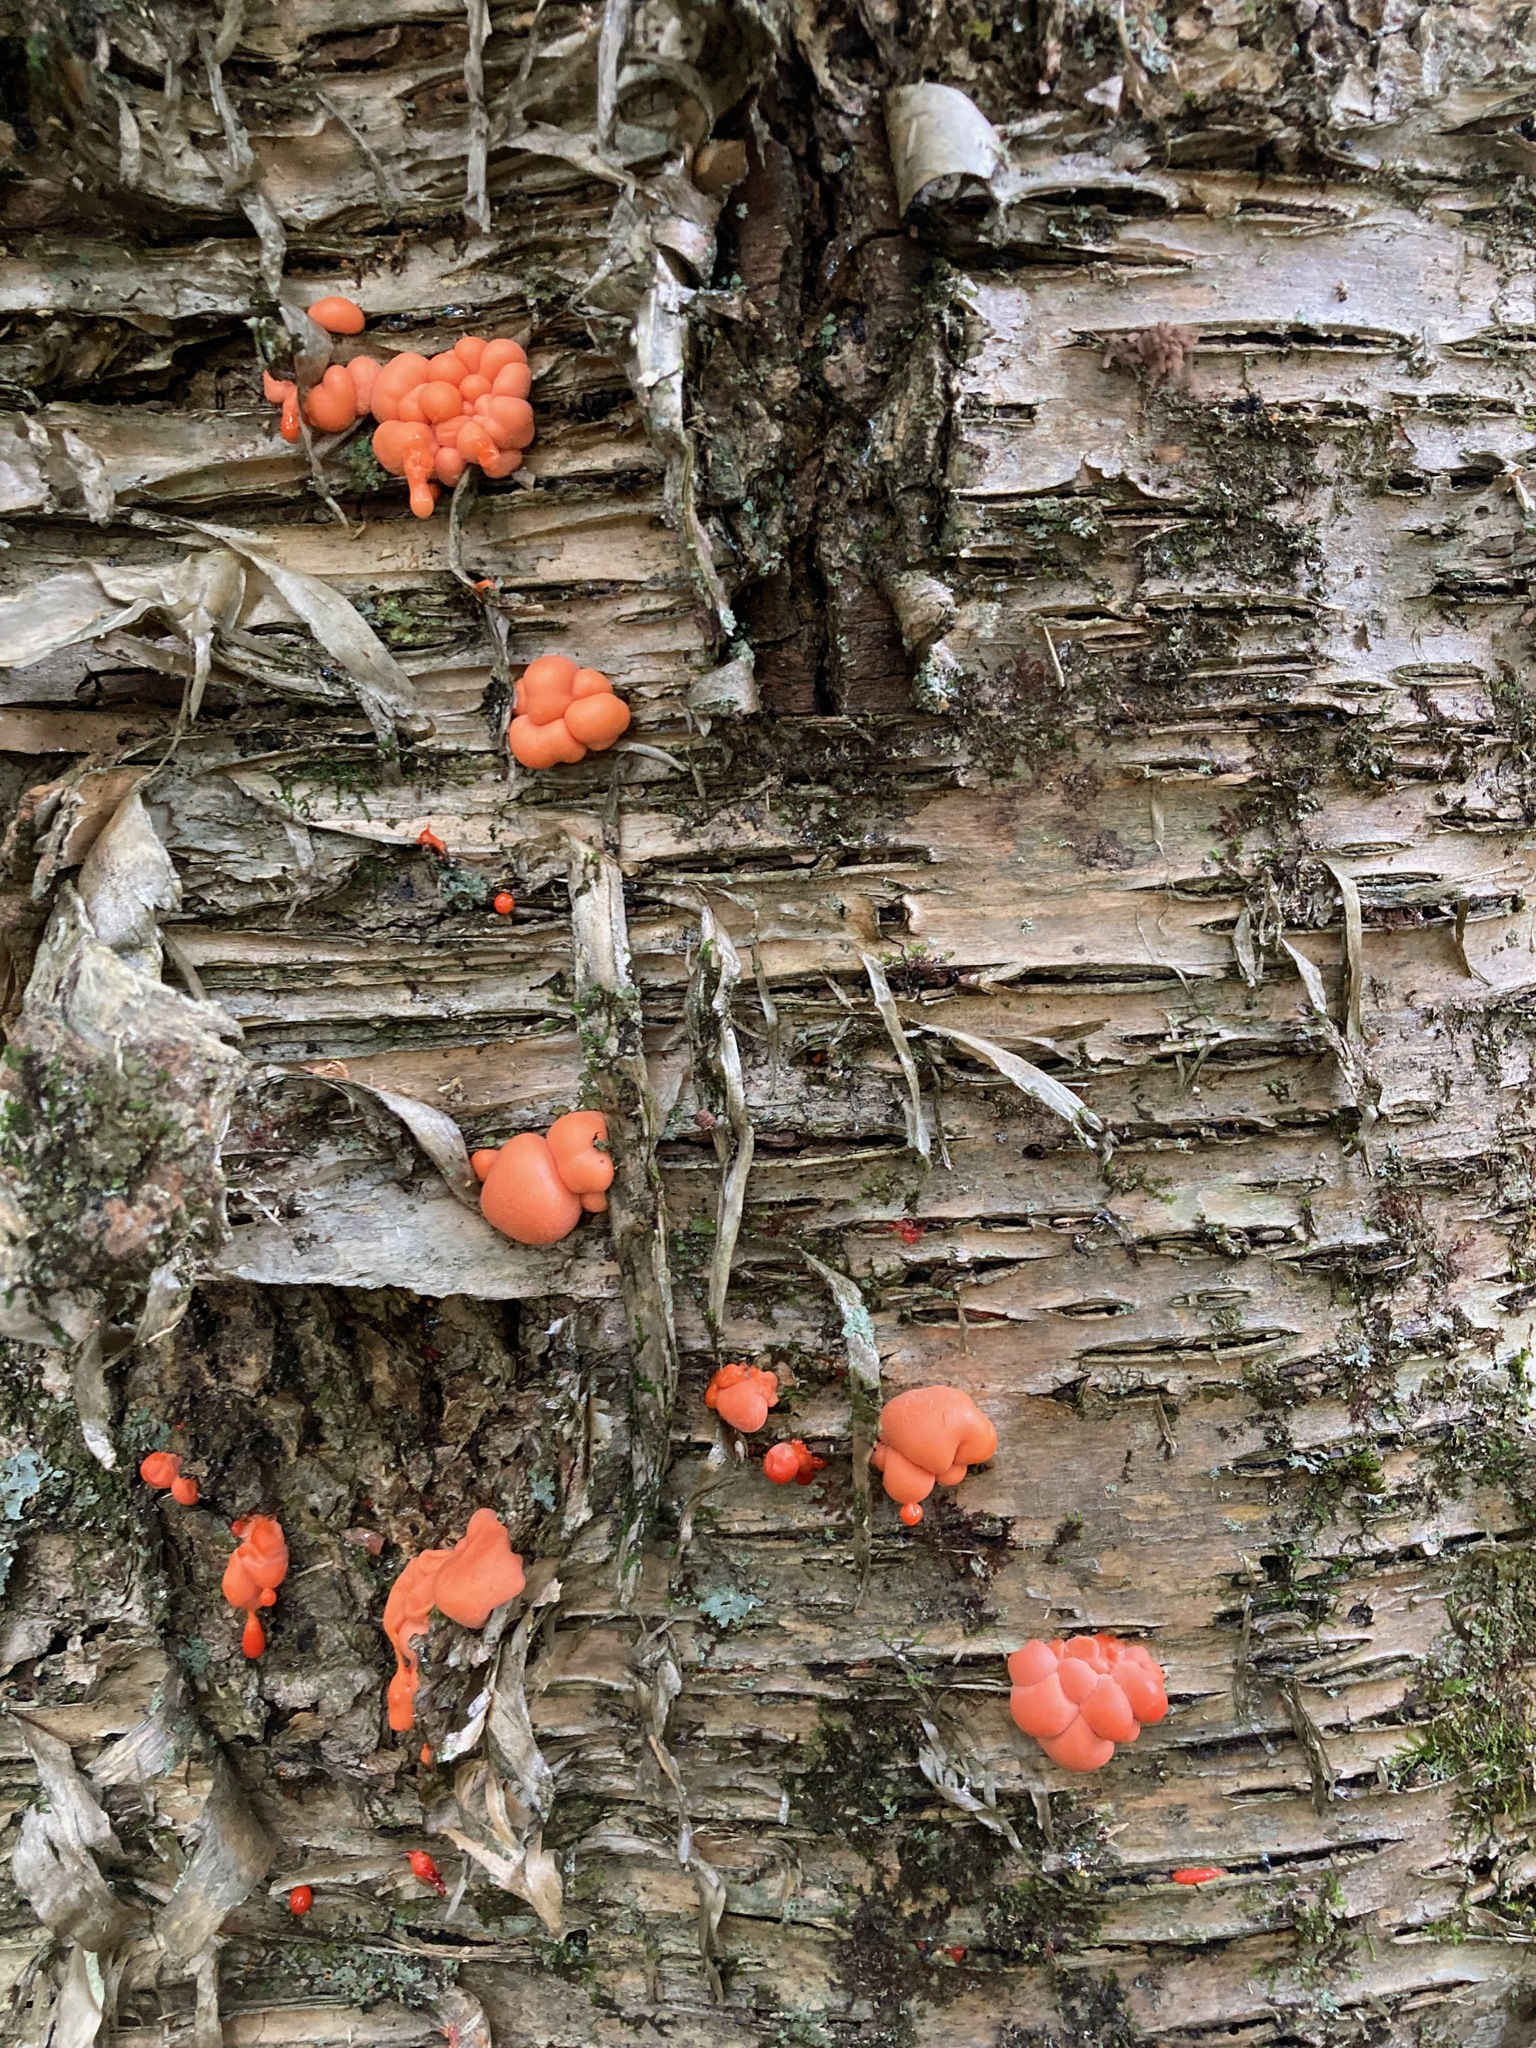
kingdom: Protozoa
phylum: Mycetozoa
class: Myxomycetes
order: Cribrariales
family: Tubiferaceae
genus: Lycogala
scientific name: Lycogala epidendrum
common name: Wolf's milk
